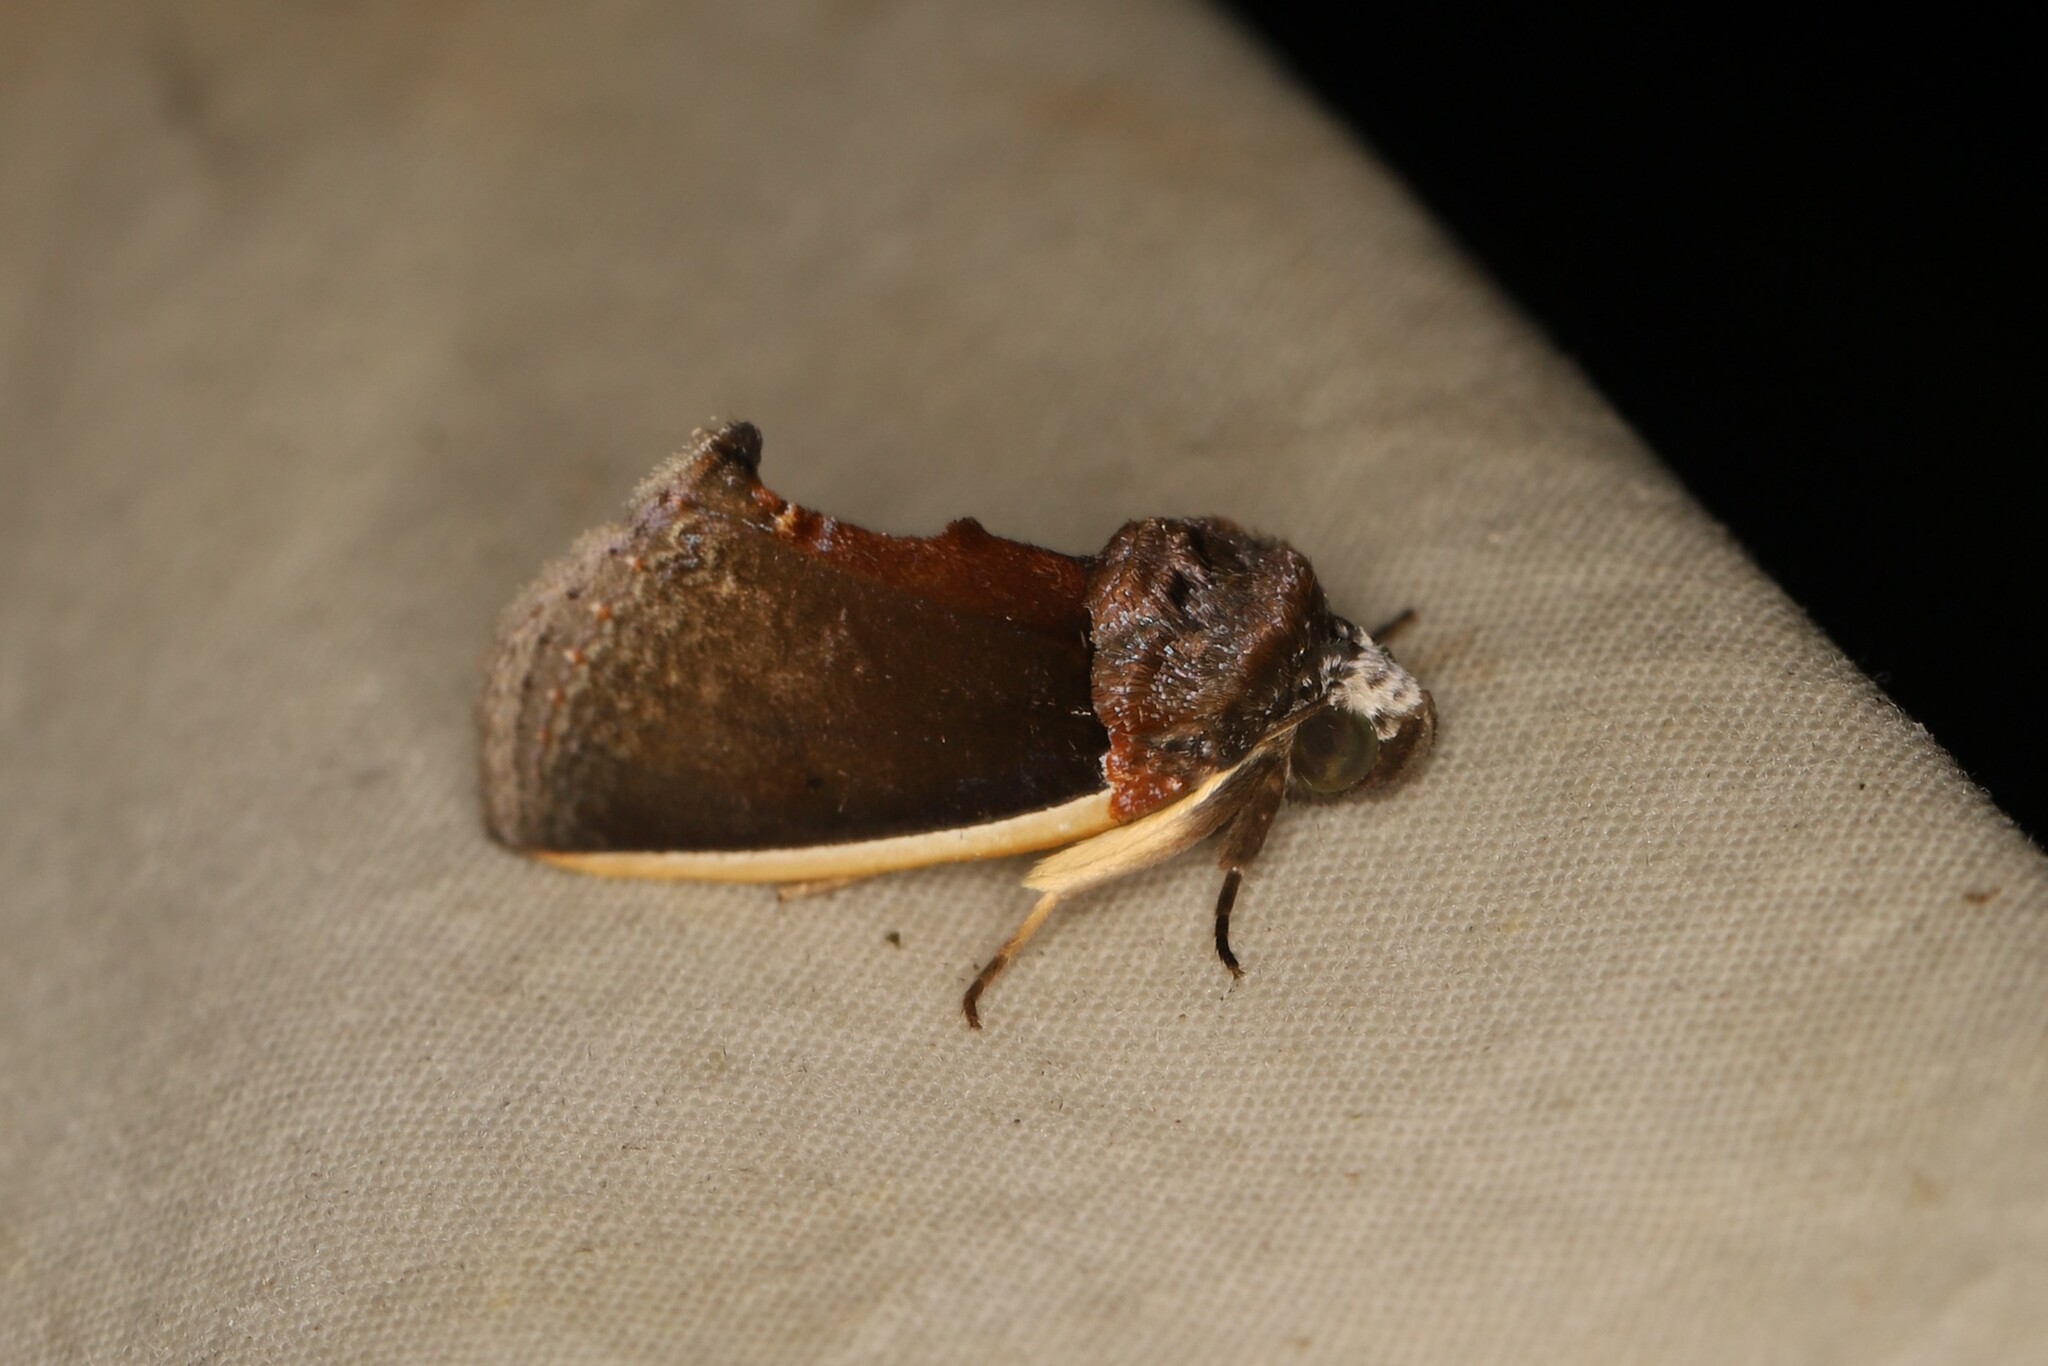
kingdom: Animalia
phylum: Arthropoda
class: Insecta
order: Lepidoptera
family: Erebidae
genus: Gonodonta
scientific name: Gonodonta holosericea
